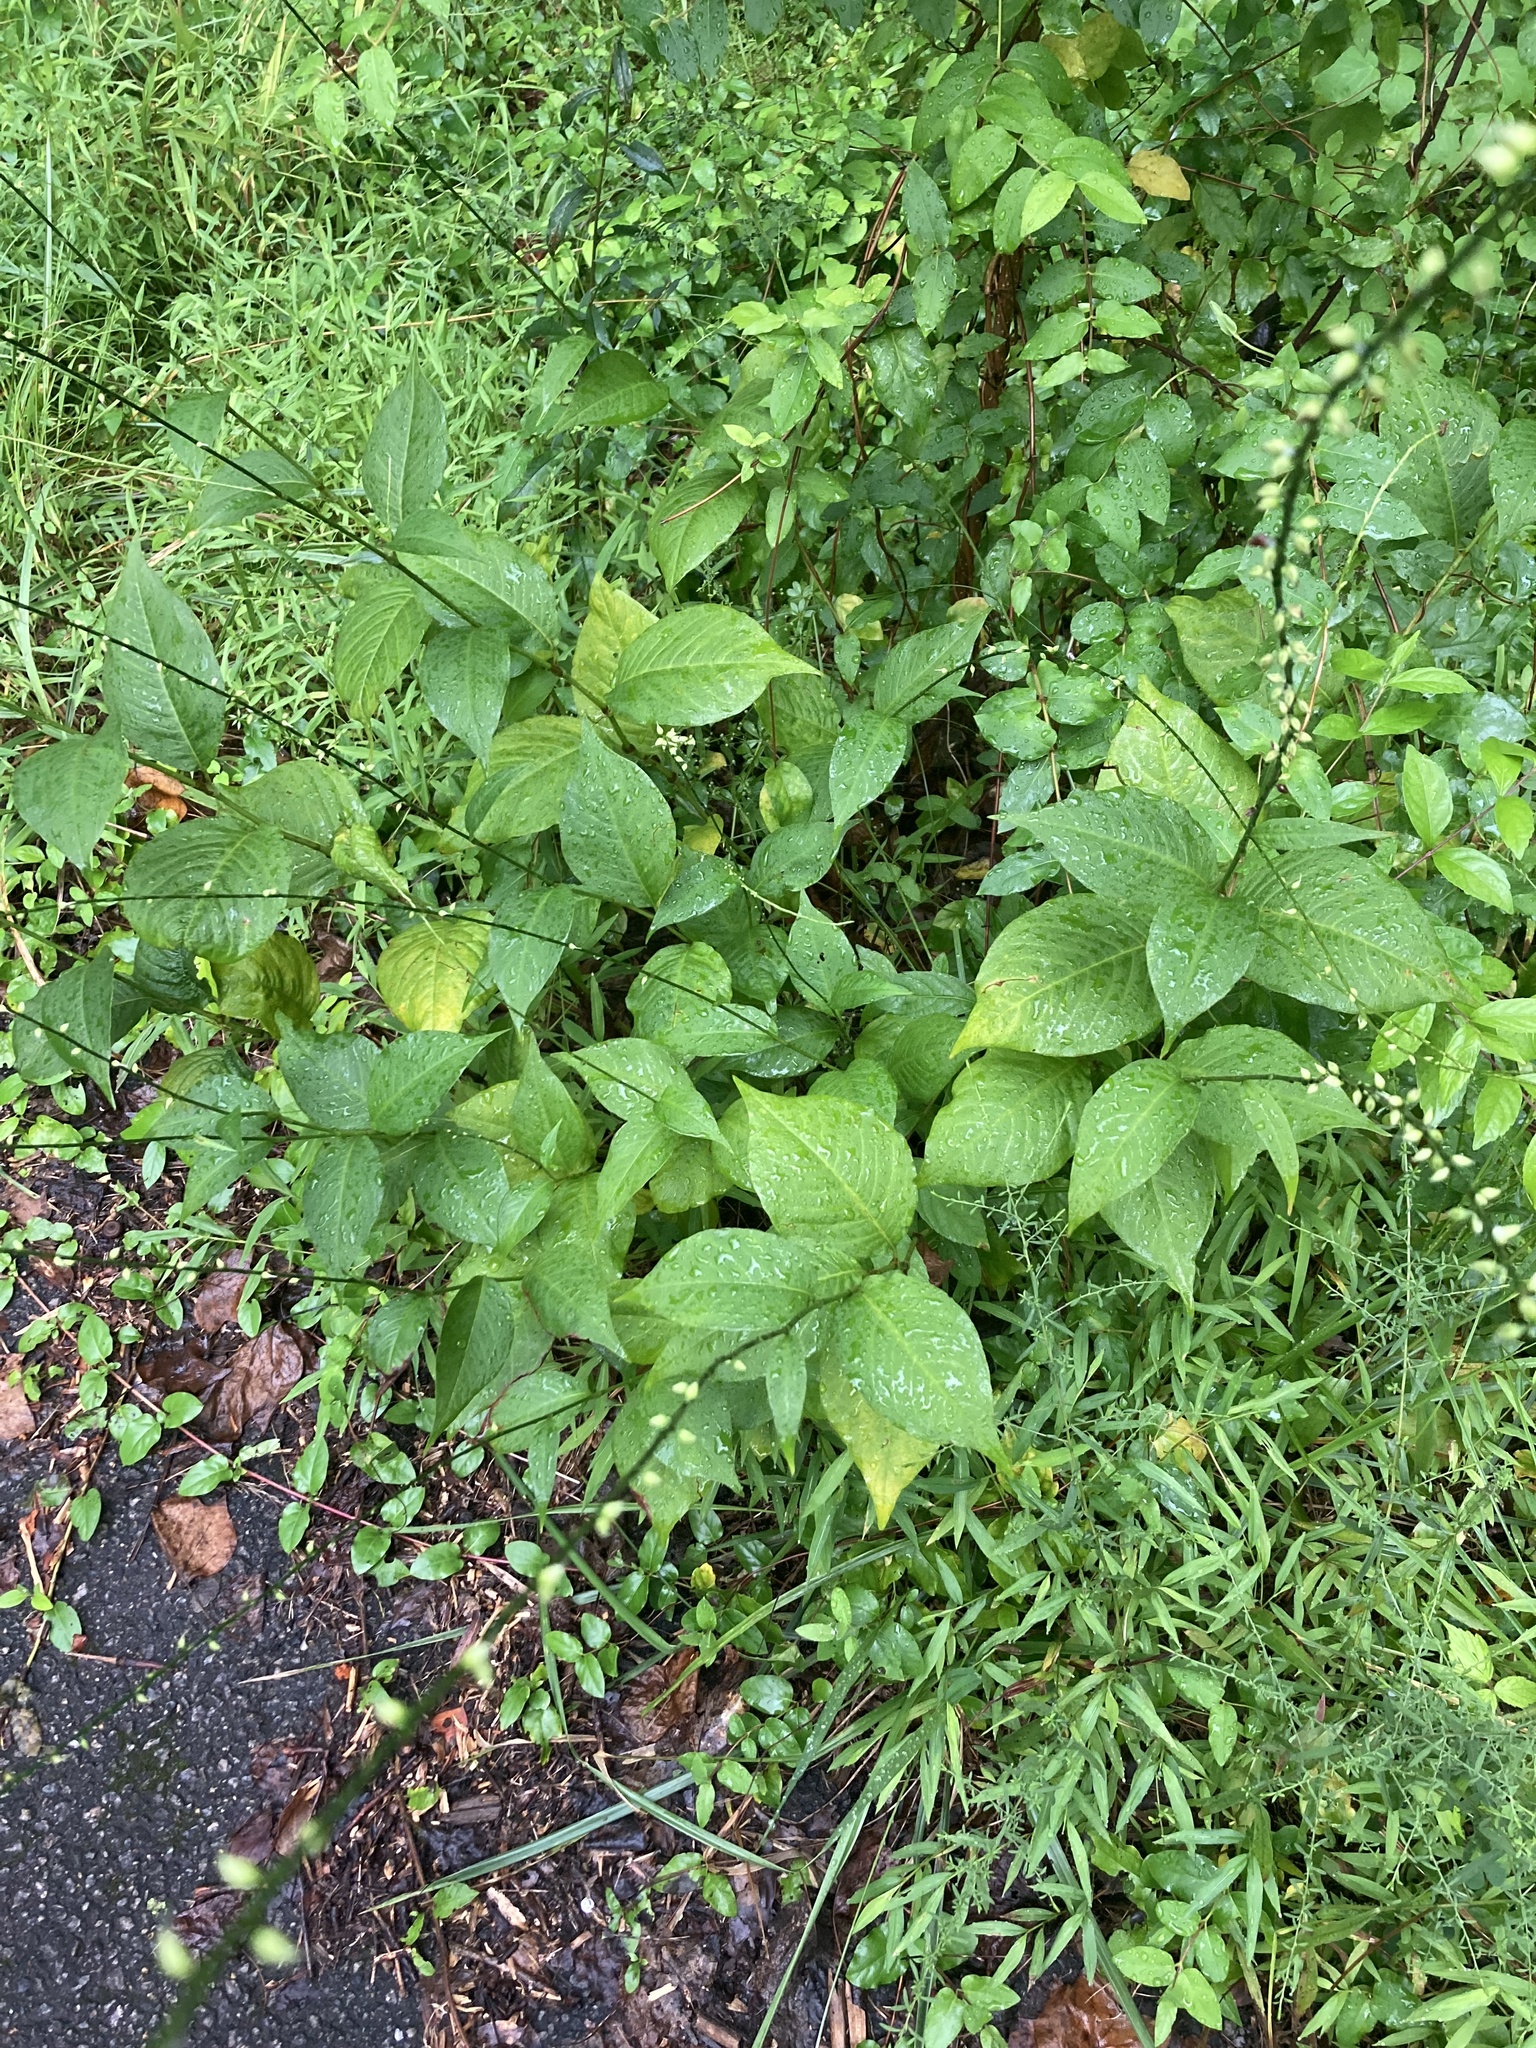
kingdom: Plantae
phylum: Tracheophyta
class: Magnoliopsida
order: Caryophyllales
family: Polygonaceae
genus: Persicaria
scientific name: Persicaria virginiana
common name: Jumpseed
